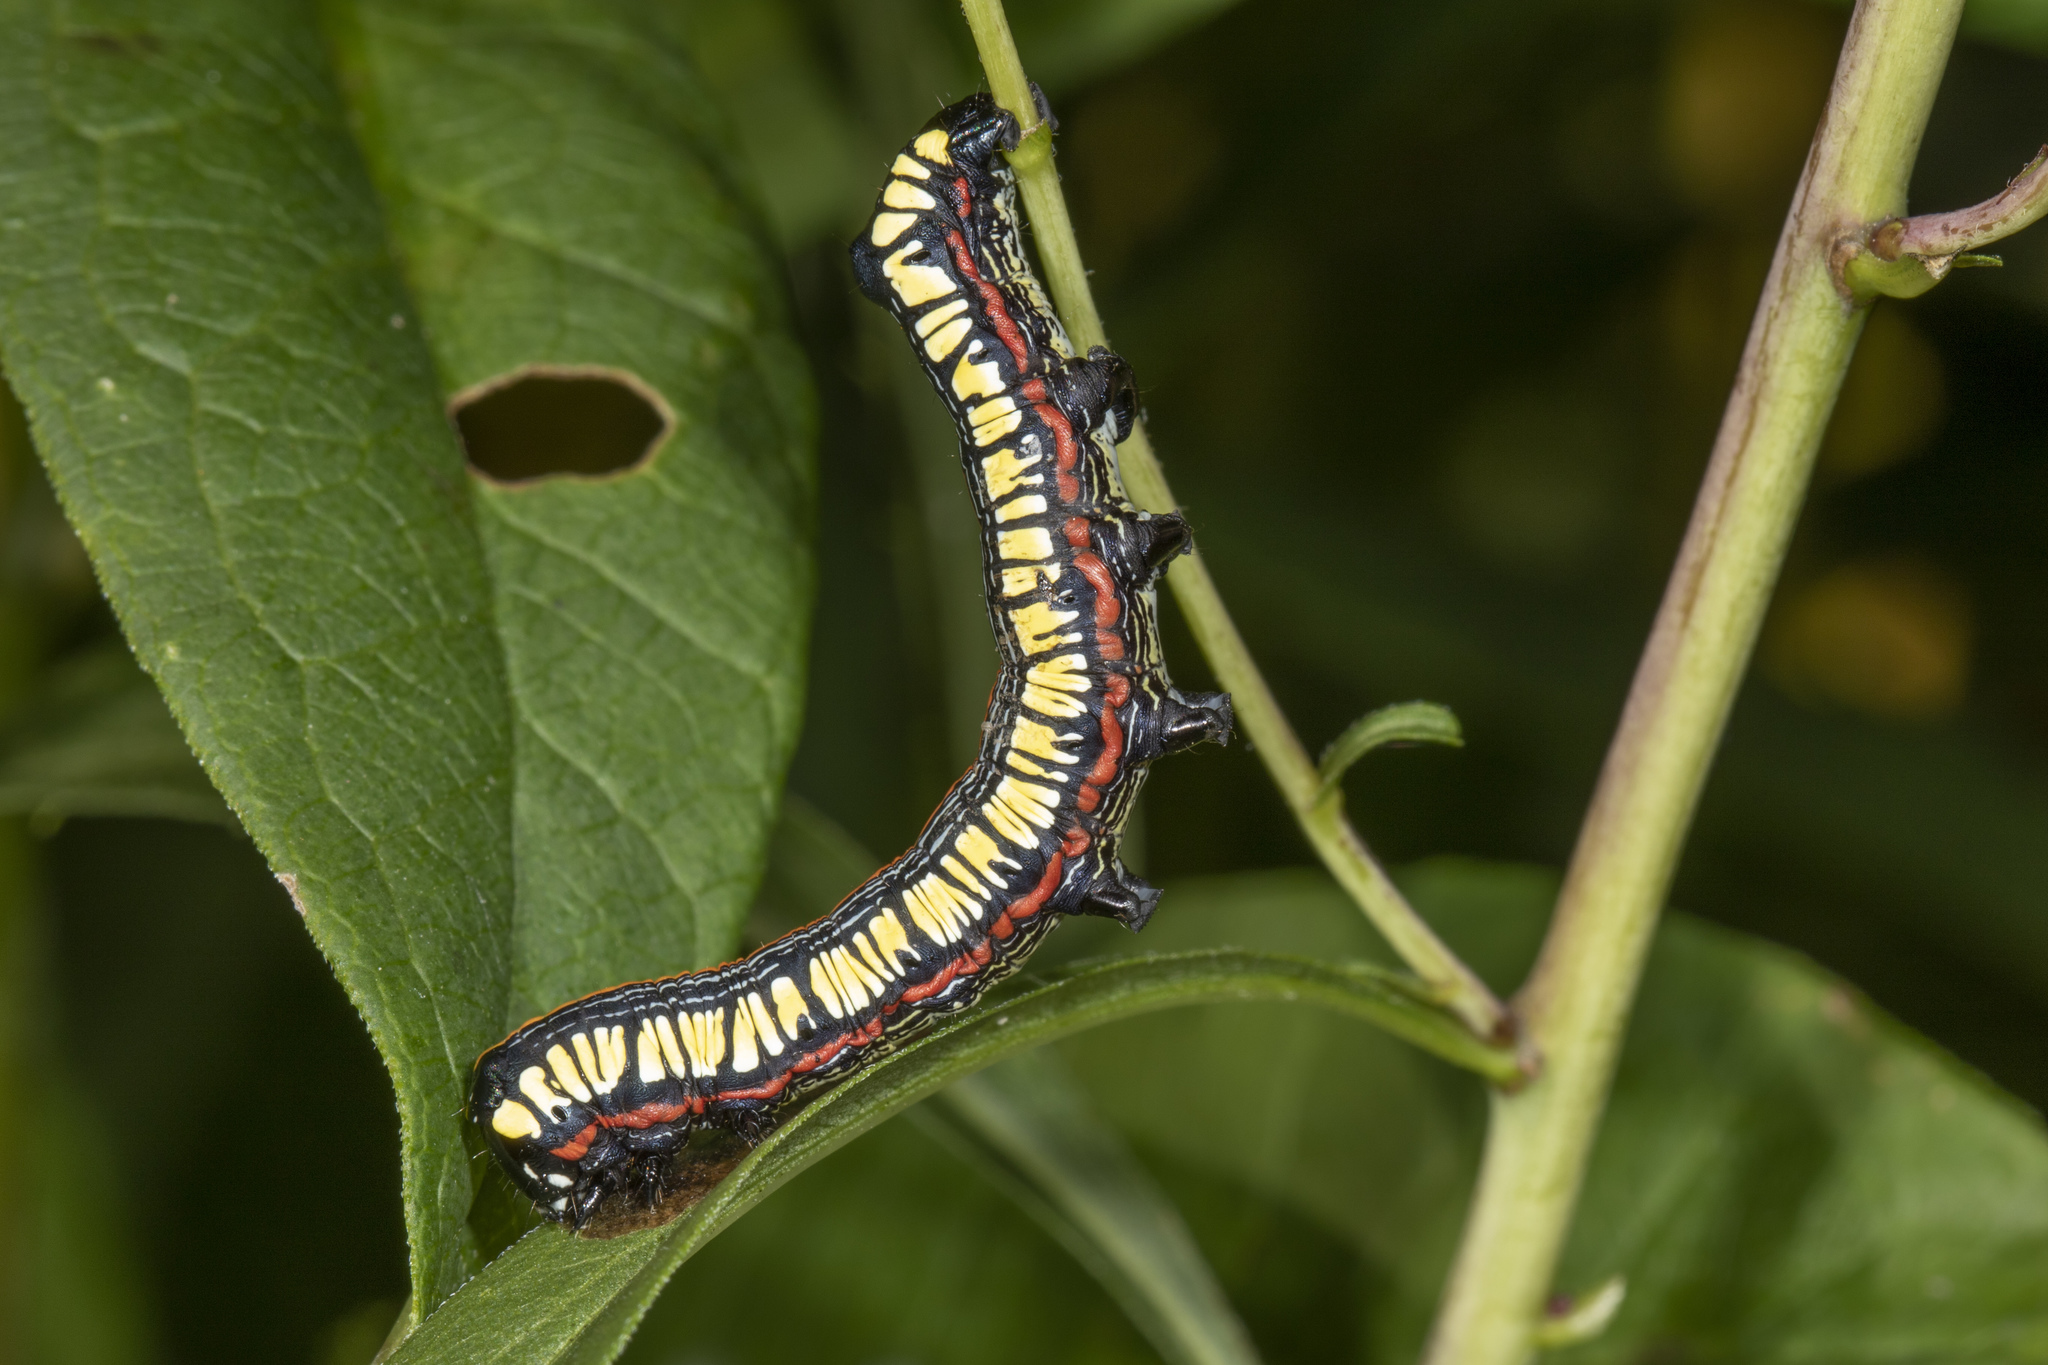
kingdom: Animalia
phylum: Arthropoda
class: Insecta
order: Lepidoptera
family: Noctuidae
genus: Cucullia
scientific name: Cucullia convexipennis
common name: Brown-hooded owlet
